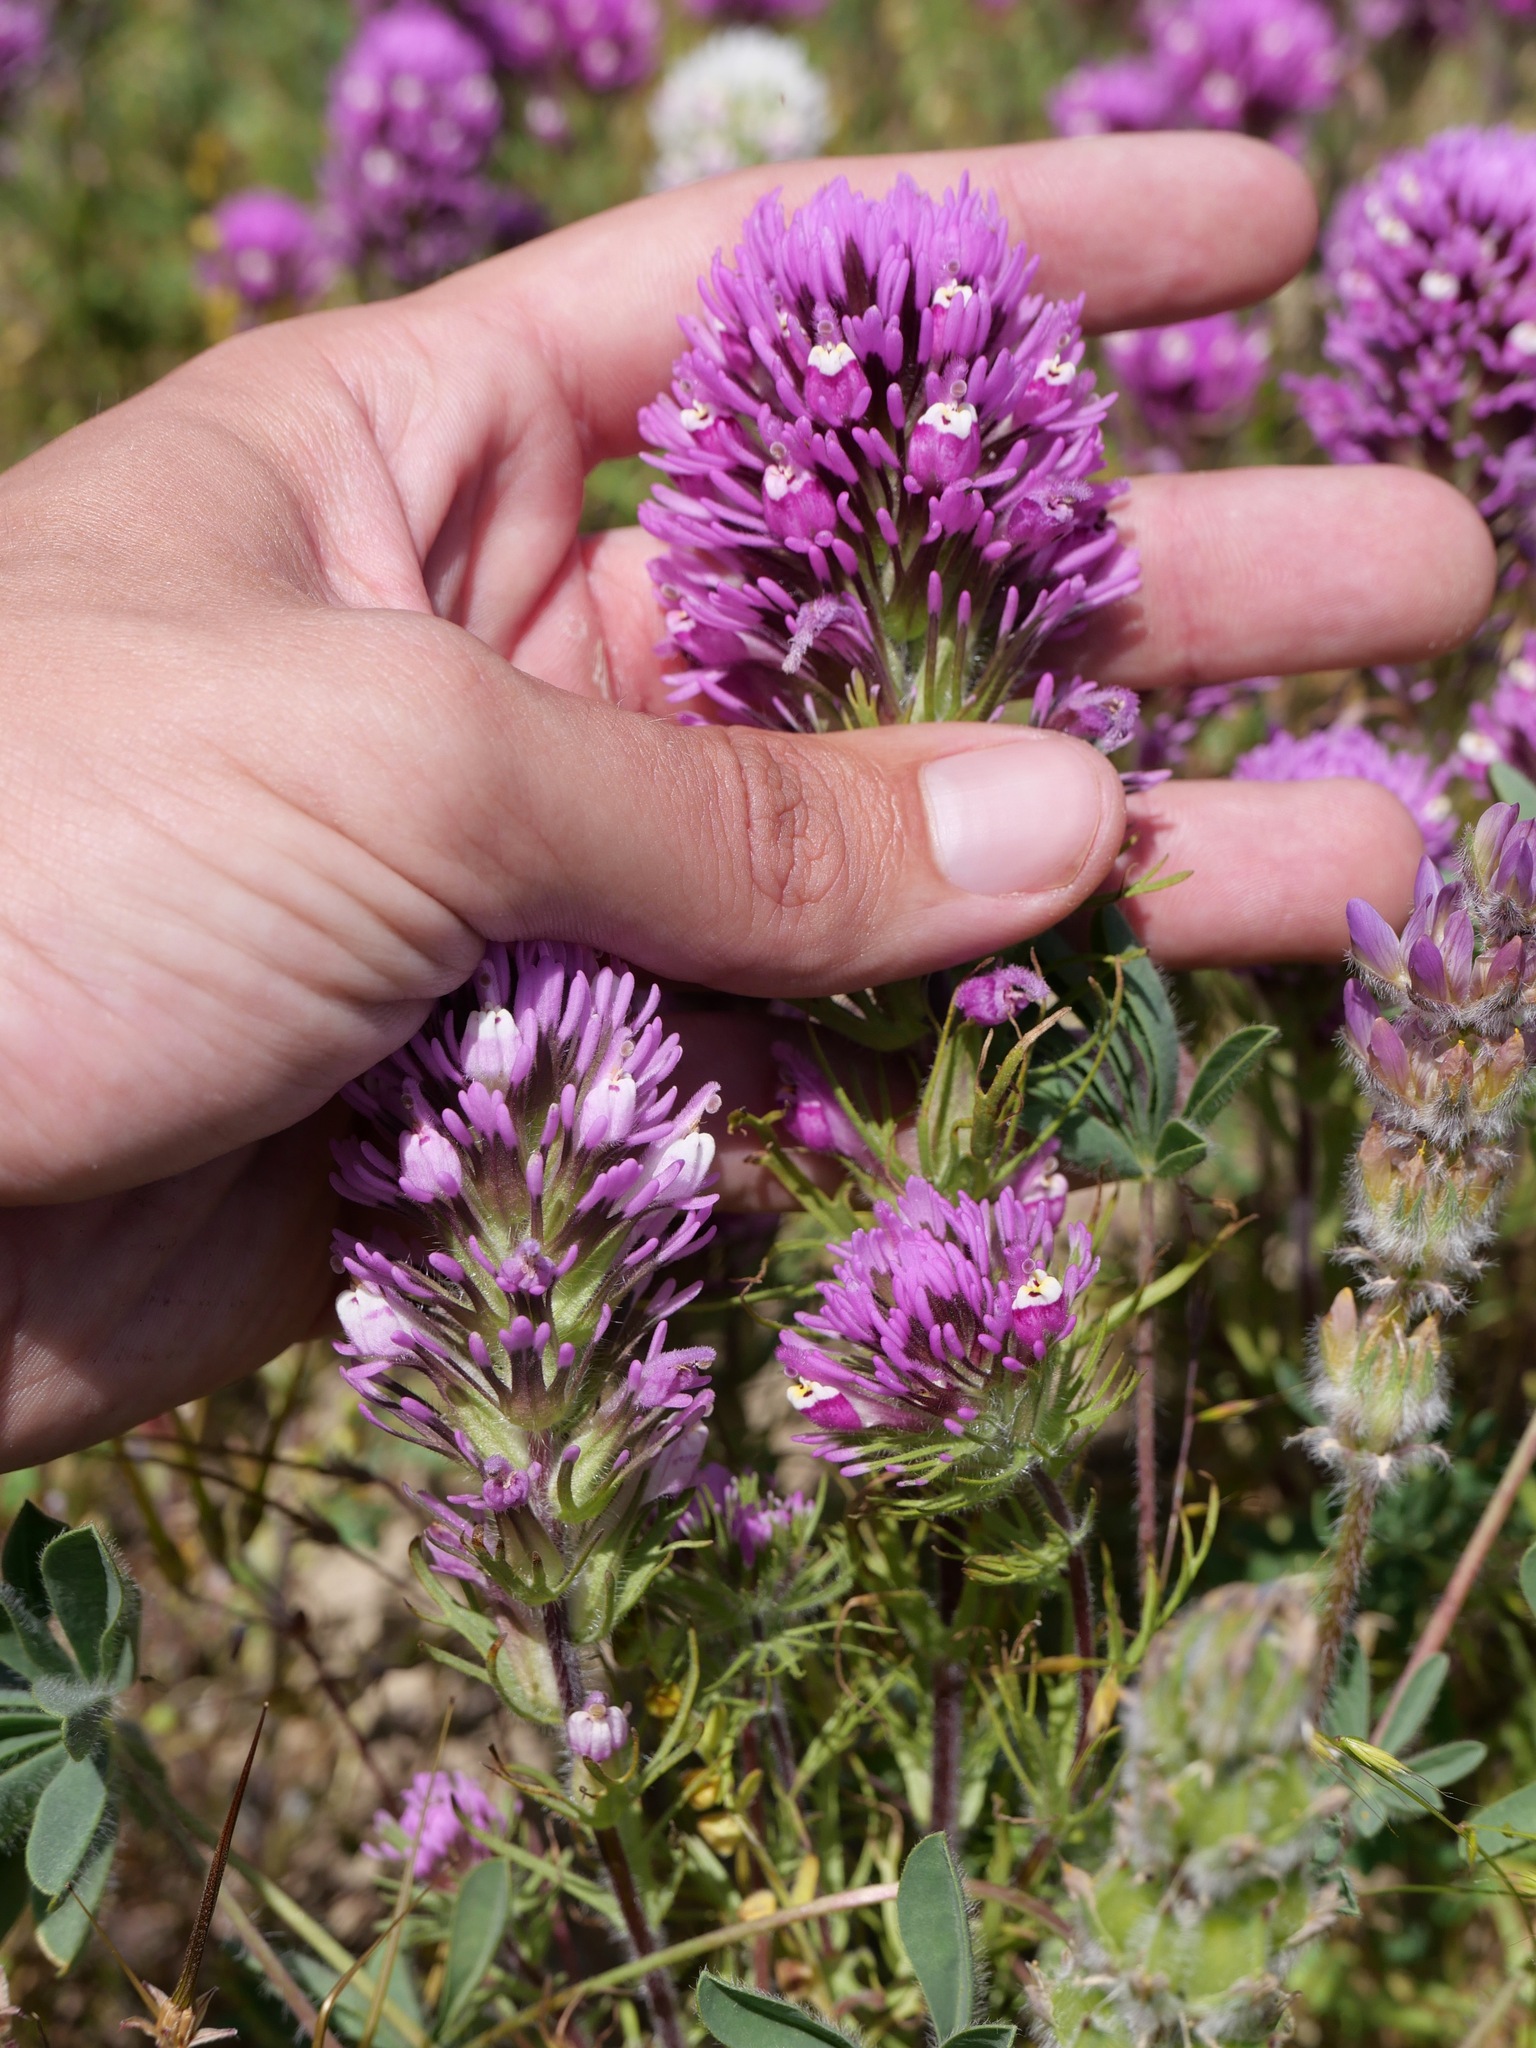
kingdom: Plantae
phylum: Tracheophyta
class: Magnoliopsida
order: Lamiales
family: Orobanchaceae
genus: Castilleja
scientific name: Castilleja exserta
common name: Purple owl-clover
